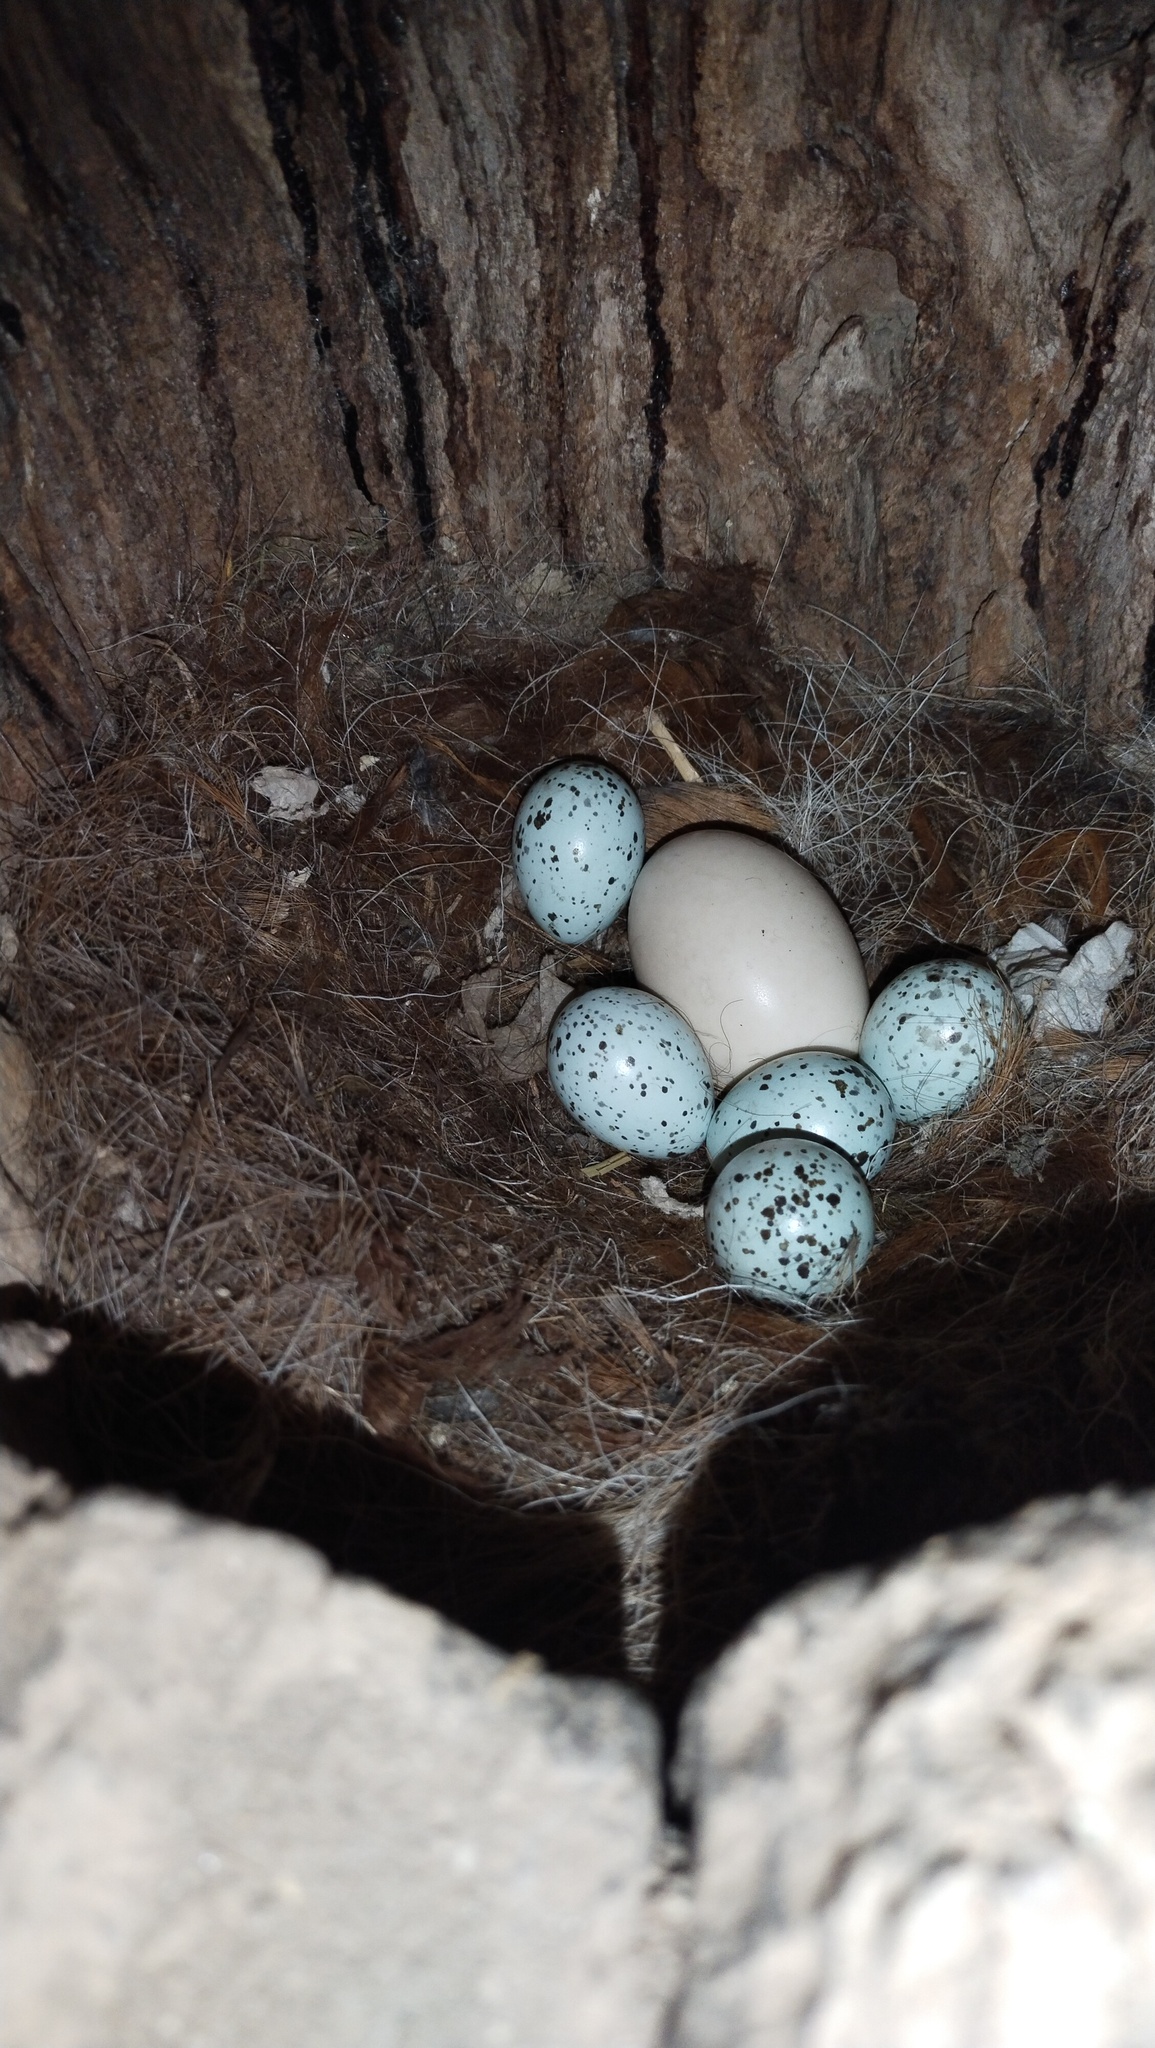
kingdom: Animalia
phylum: Chordata
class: Aves
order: Anseriformes
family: Anatidae
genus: Aix
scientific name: Aix galericulata
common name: Mandarin duck
